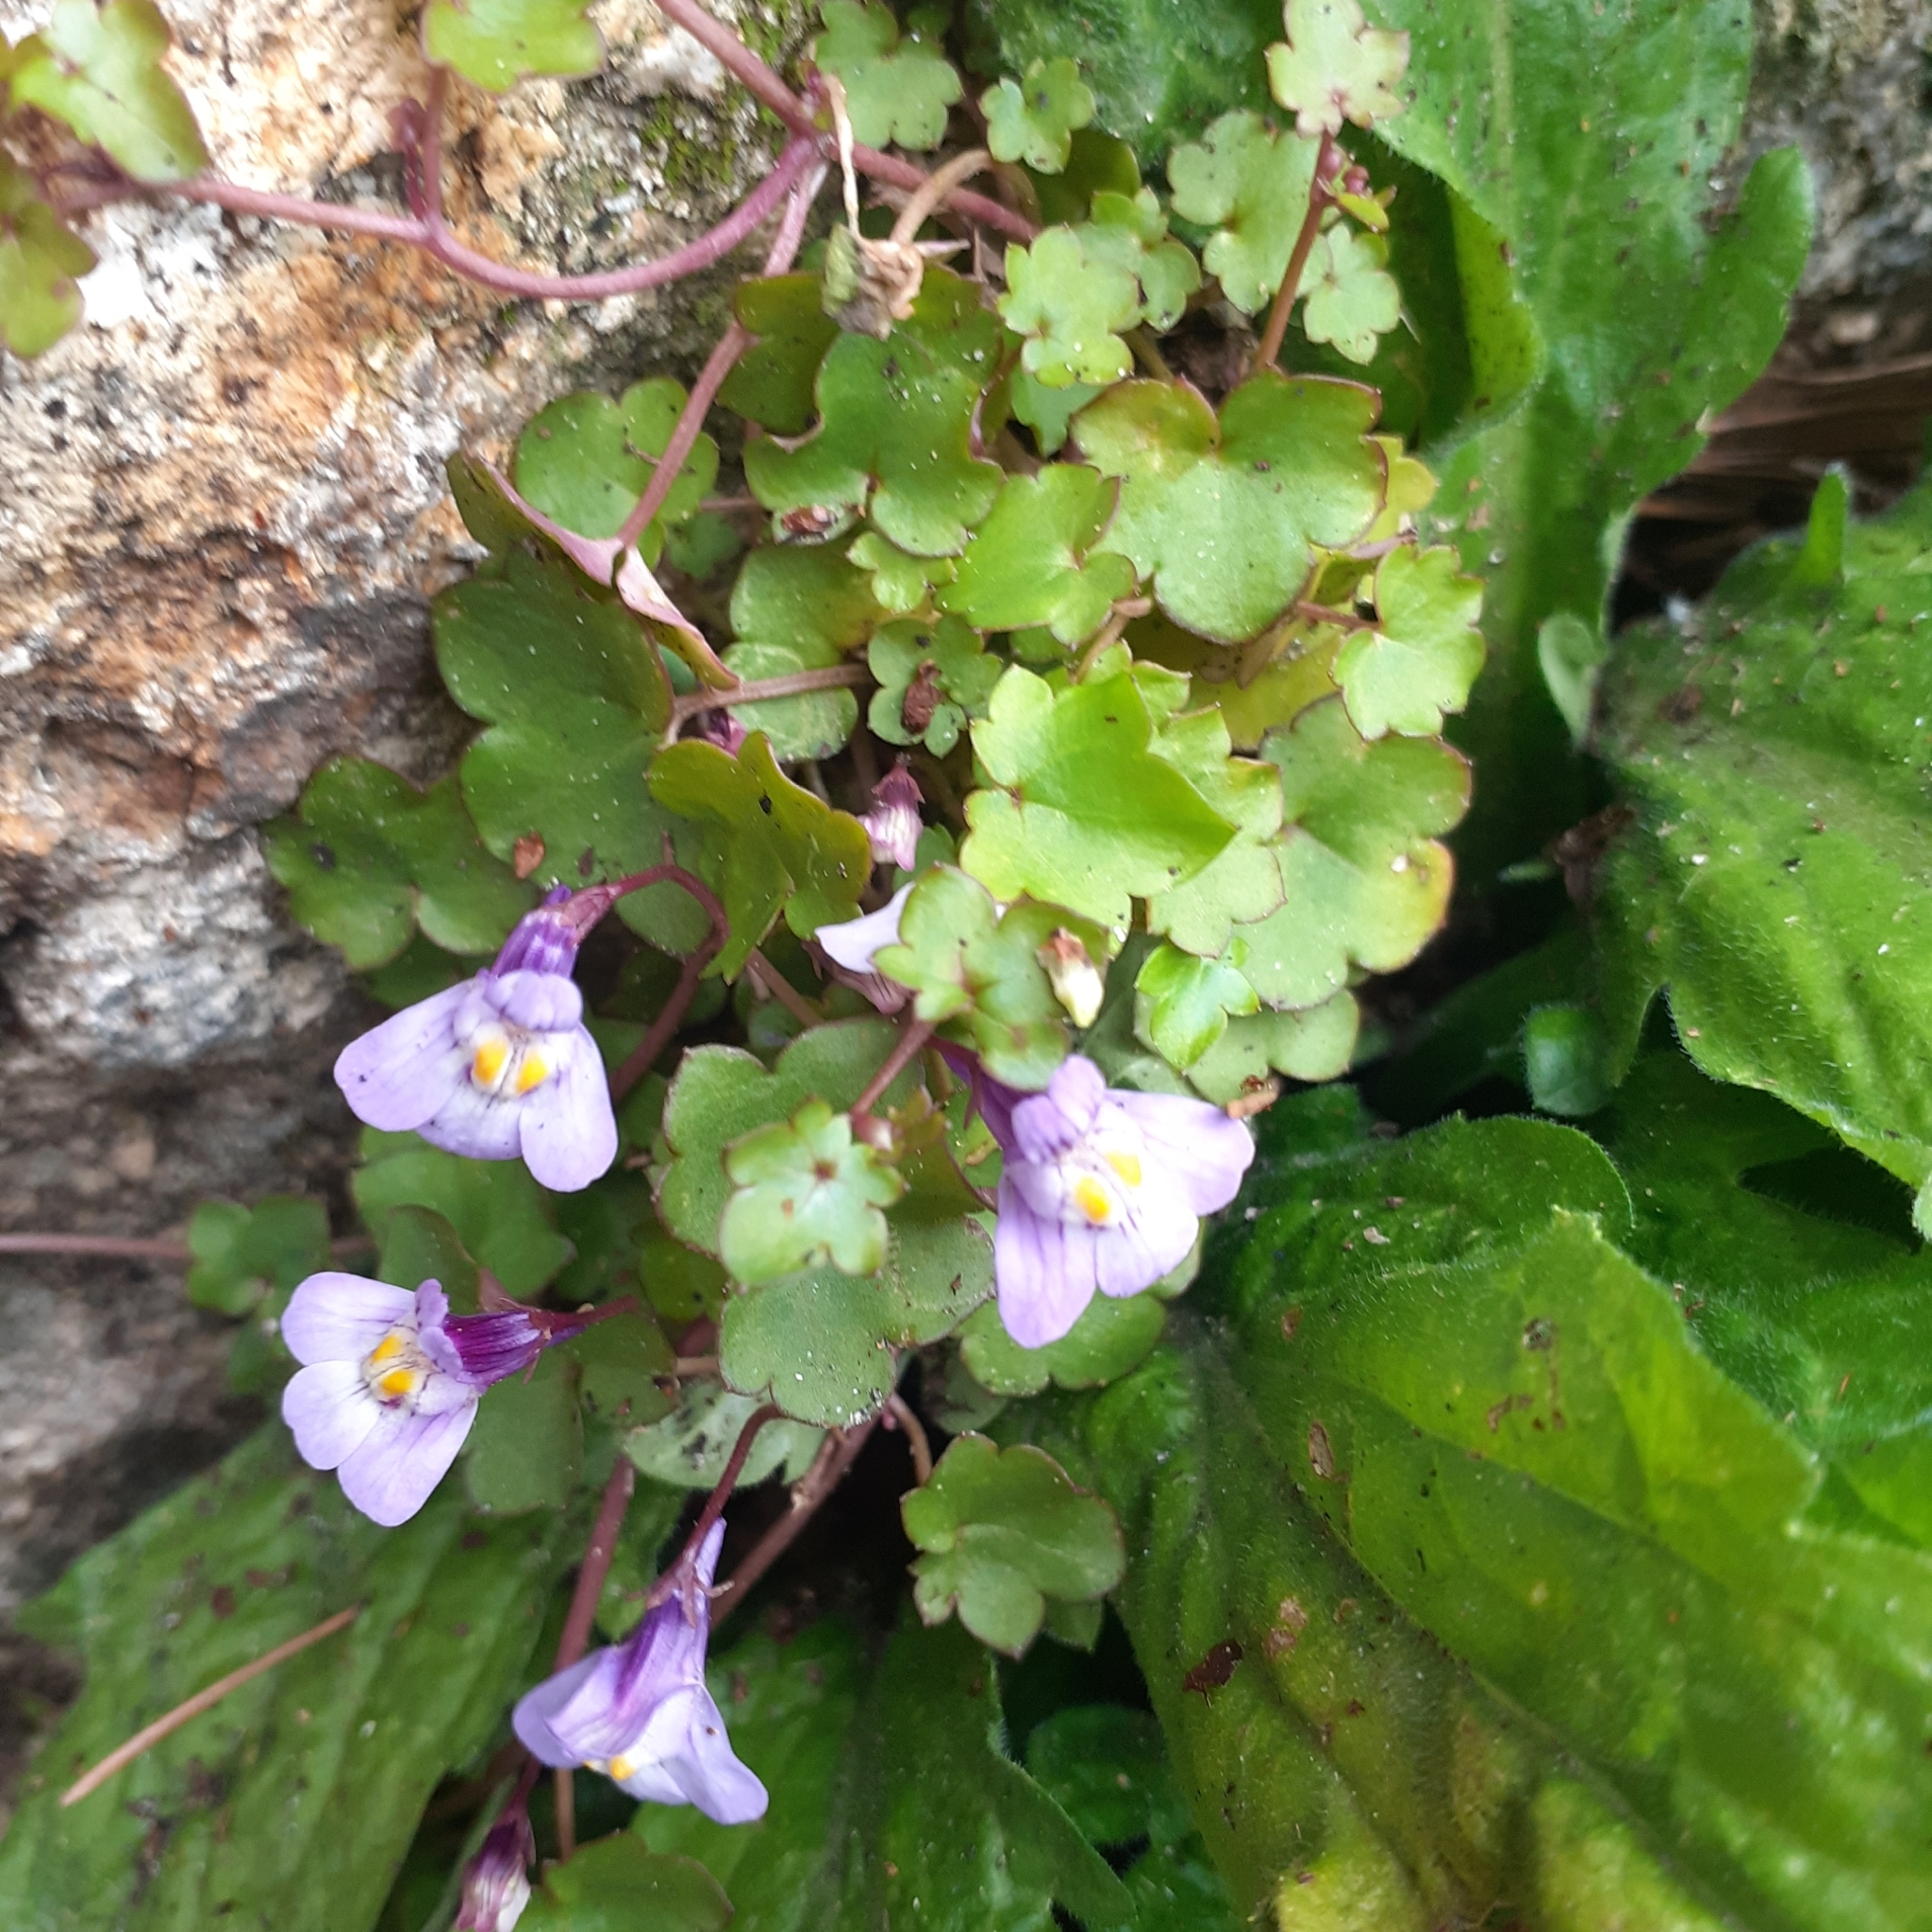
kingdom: Plantae
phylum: Tracheophyta
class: Magnoliopsida
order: Lamiales
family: Plantaginaceae
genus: Cymbalaria
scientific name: Cymbalaria muralis
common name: Ivy-leaved toadflax
